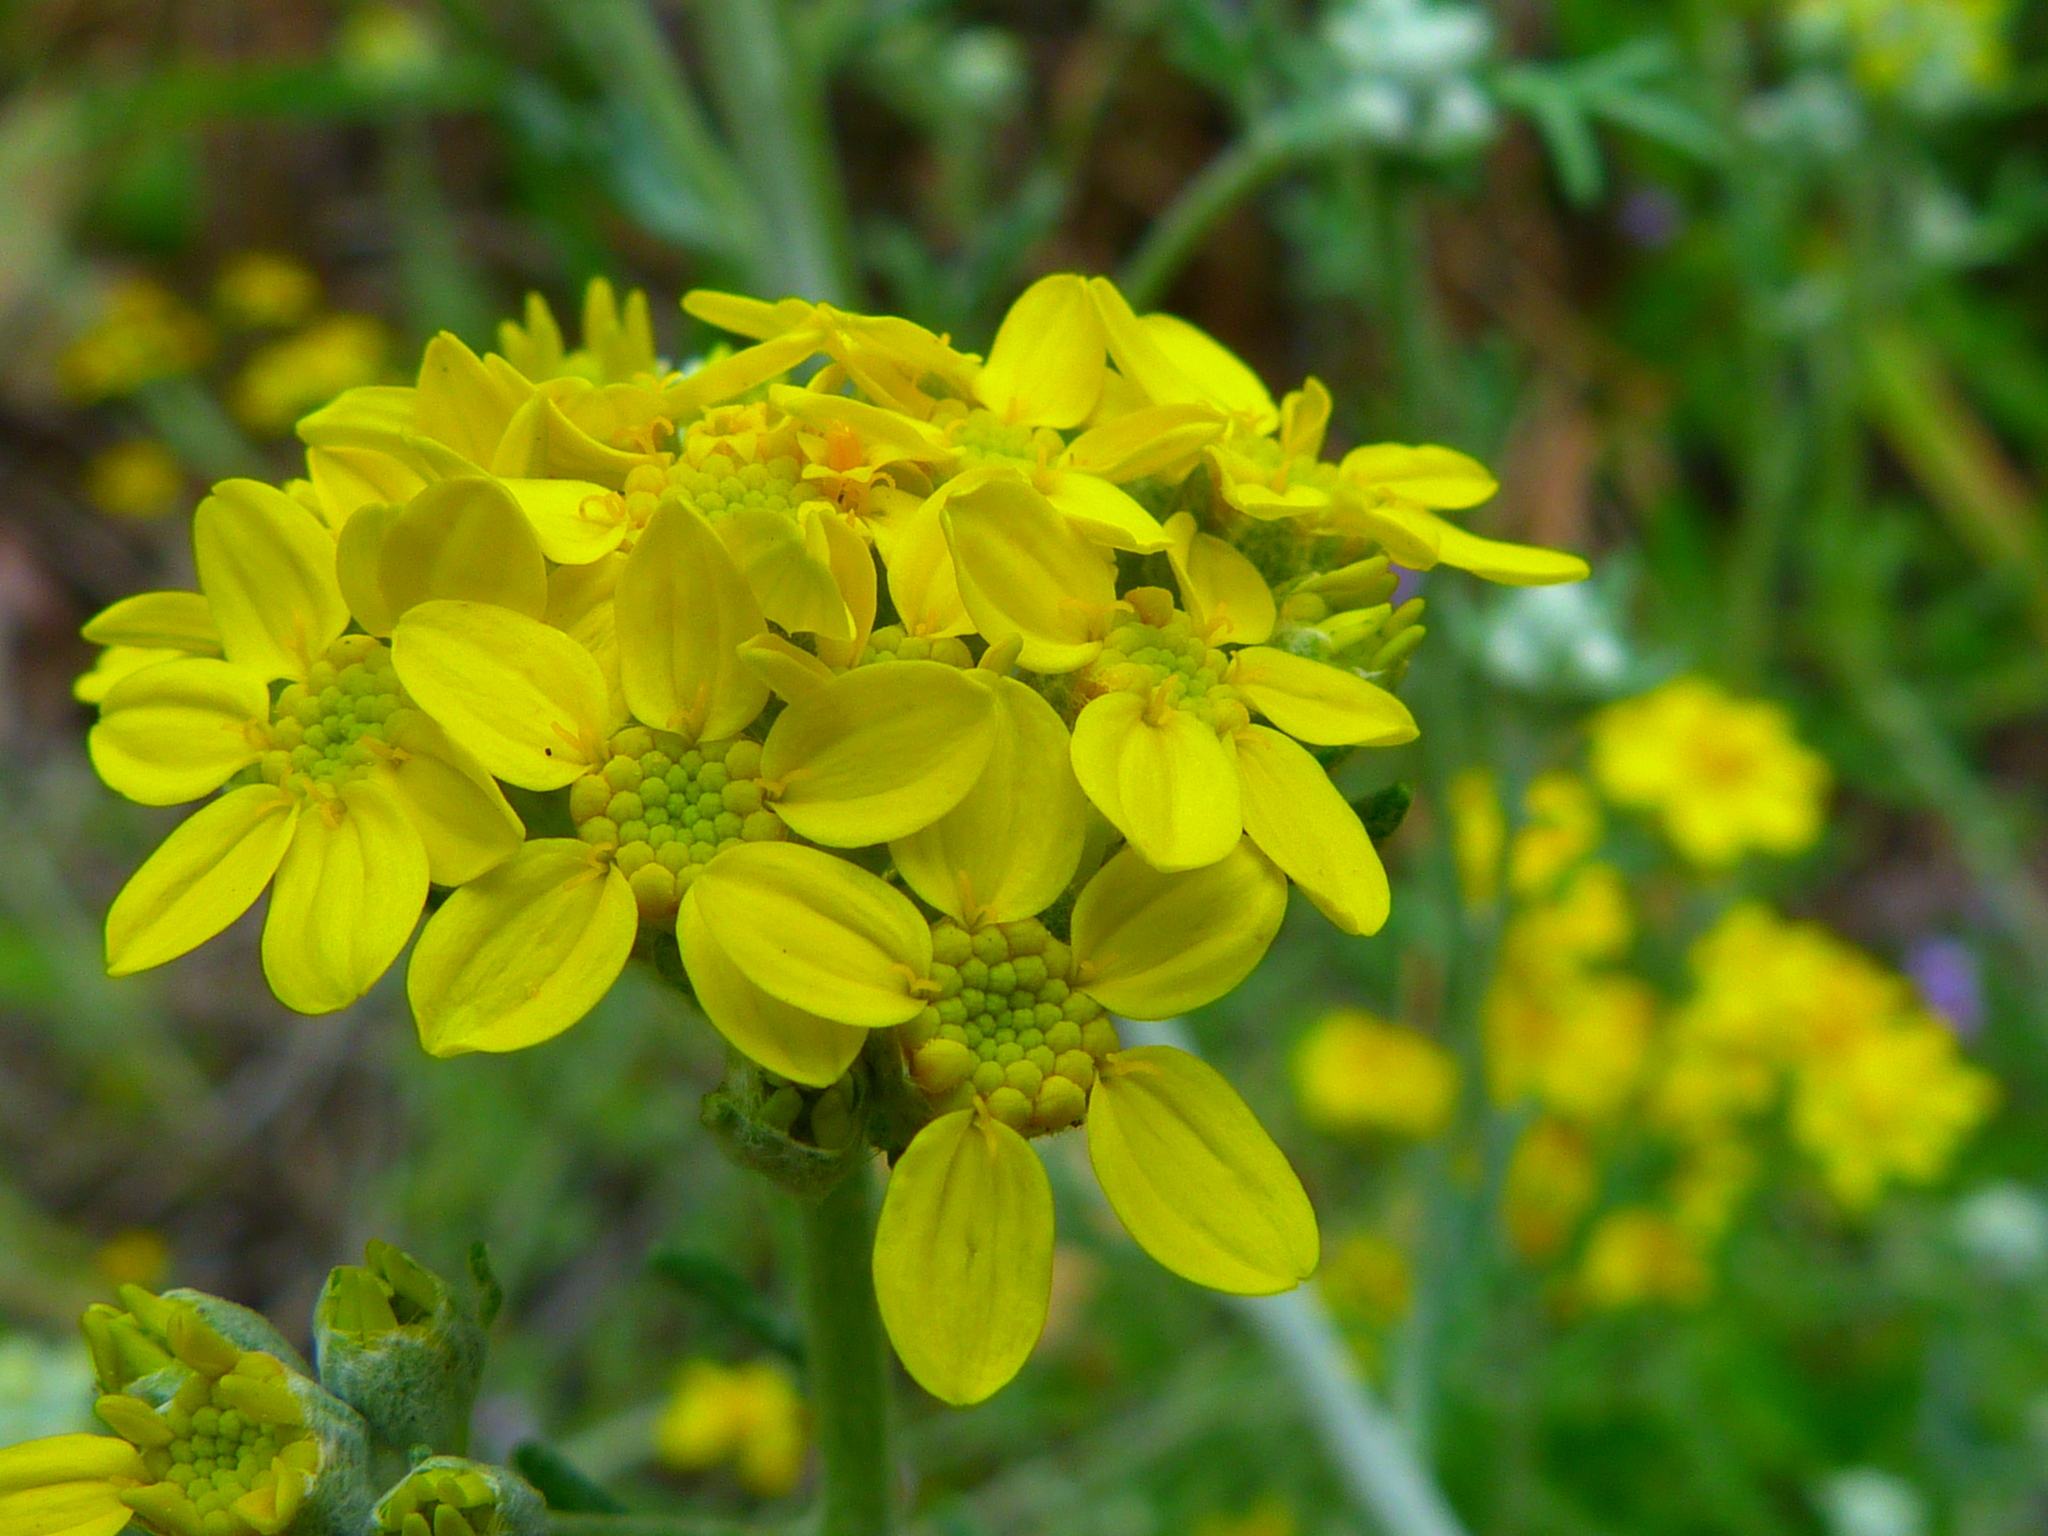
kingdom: Plantae
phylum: Tracheophyta
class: Magnoliopsida
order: Asterales
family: Asteraceae
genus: Eriophyllum
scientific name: Eriophyllum confertiflorum
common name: Golden-yarrow
